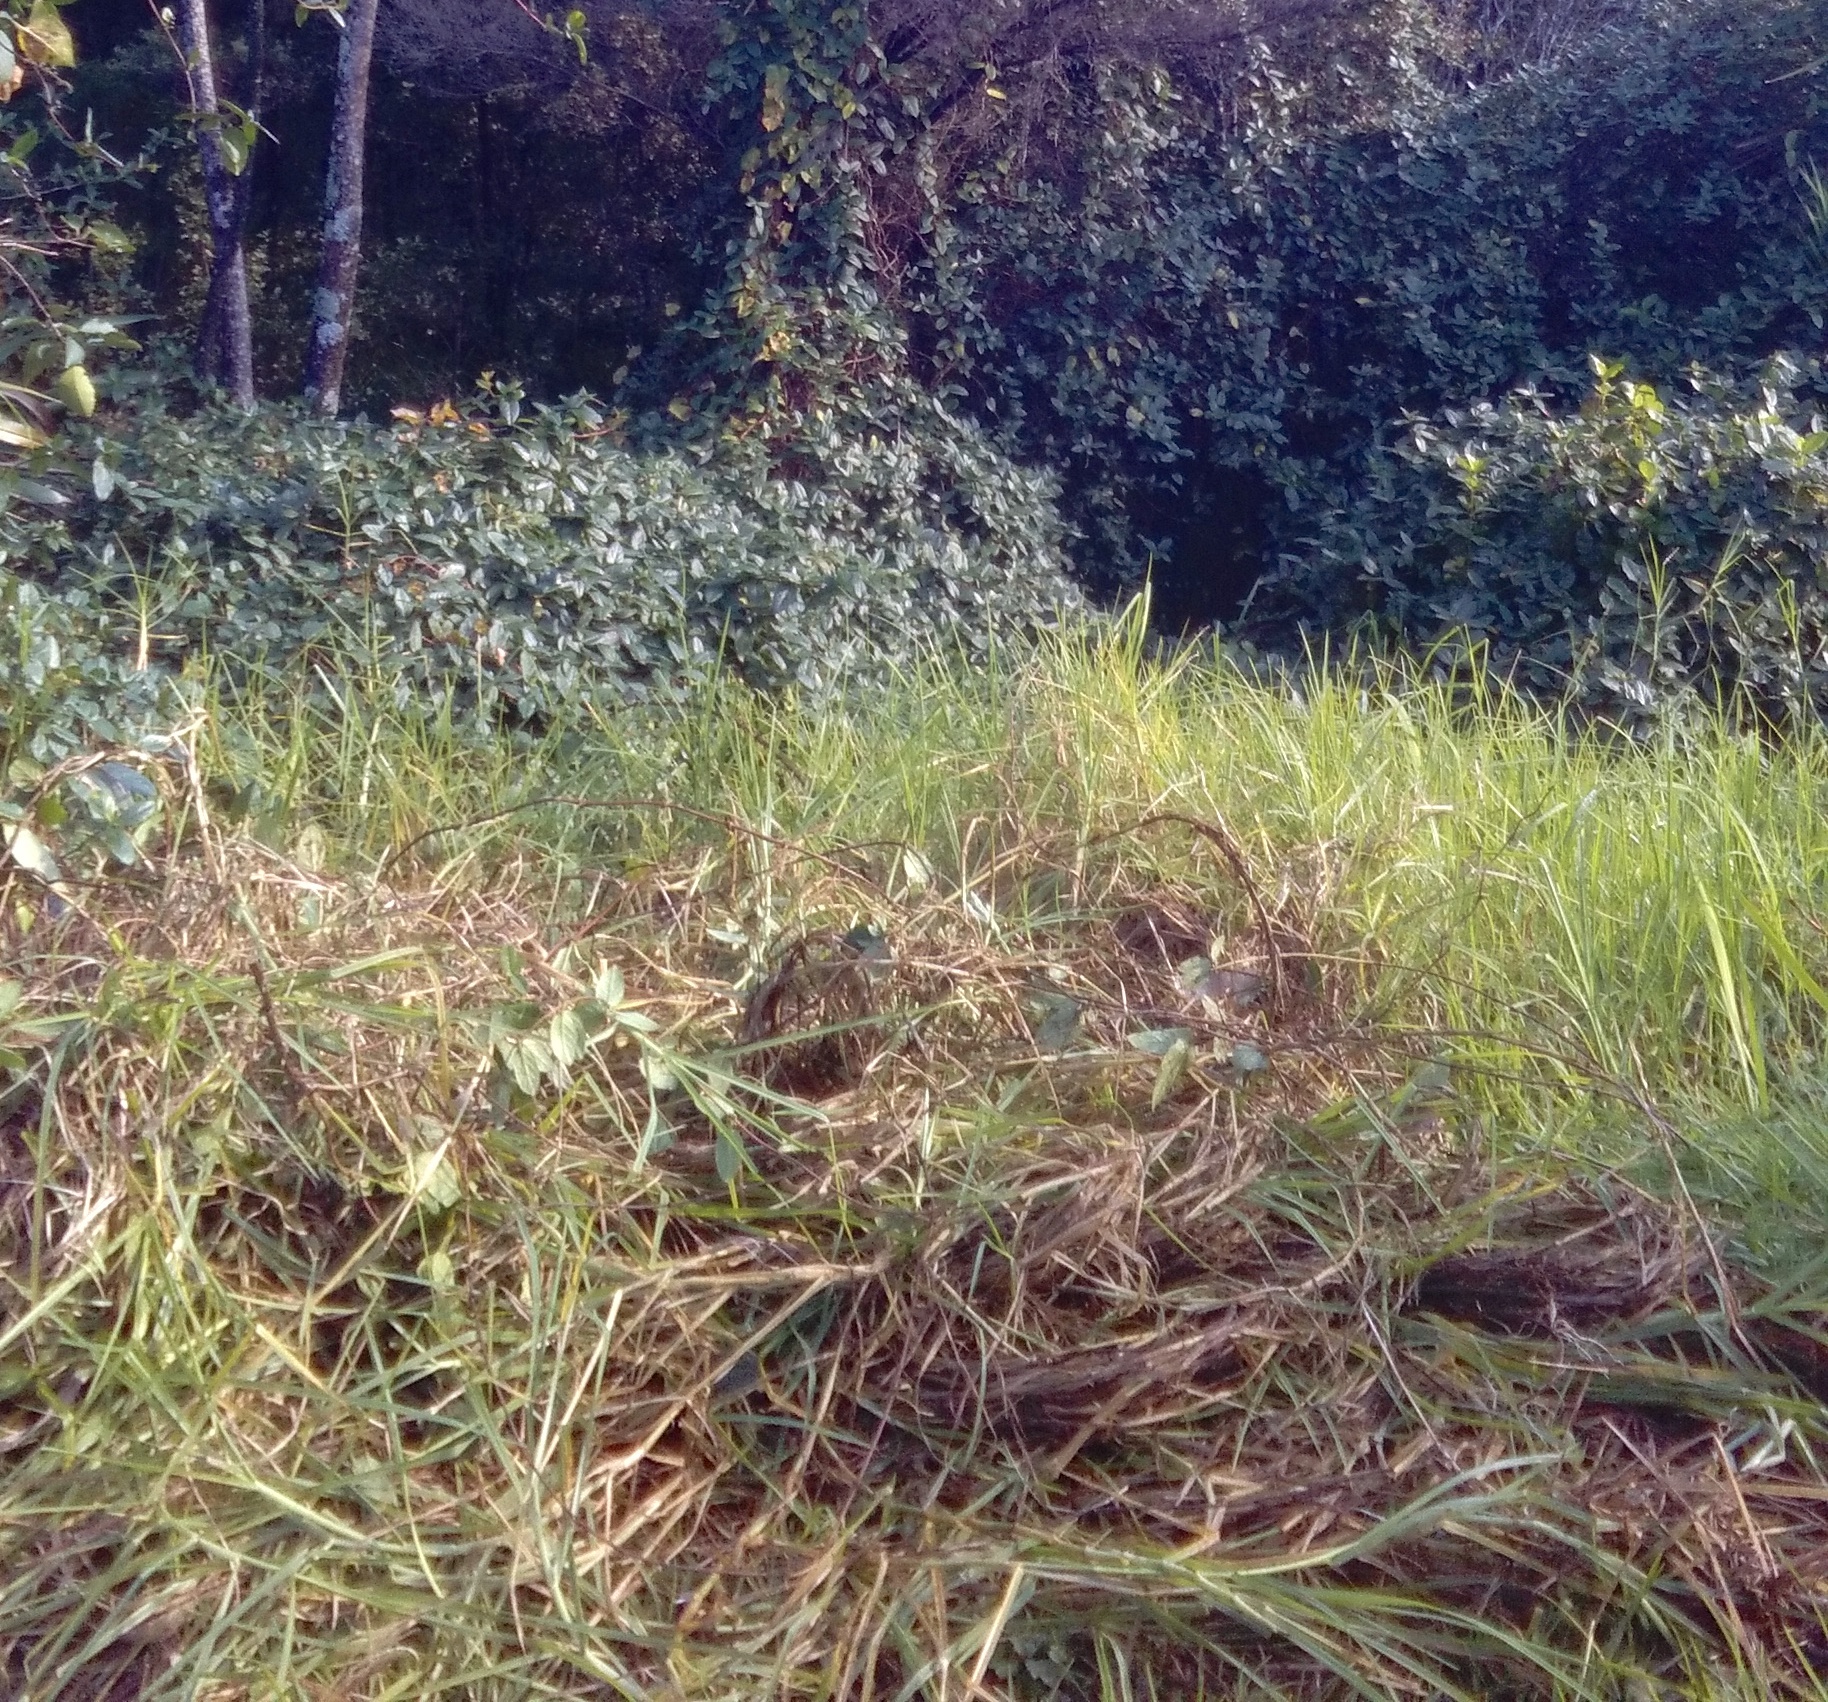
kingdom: Plantae
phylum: Tracheophyta
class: Liliopsida
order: Poales
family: Poaceae
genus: Cenchrus
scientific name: Cenchrus clandestinus
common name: Kikuyugrass
